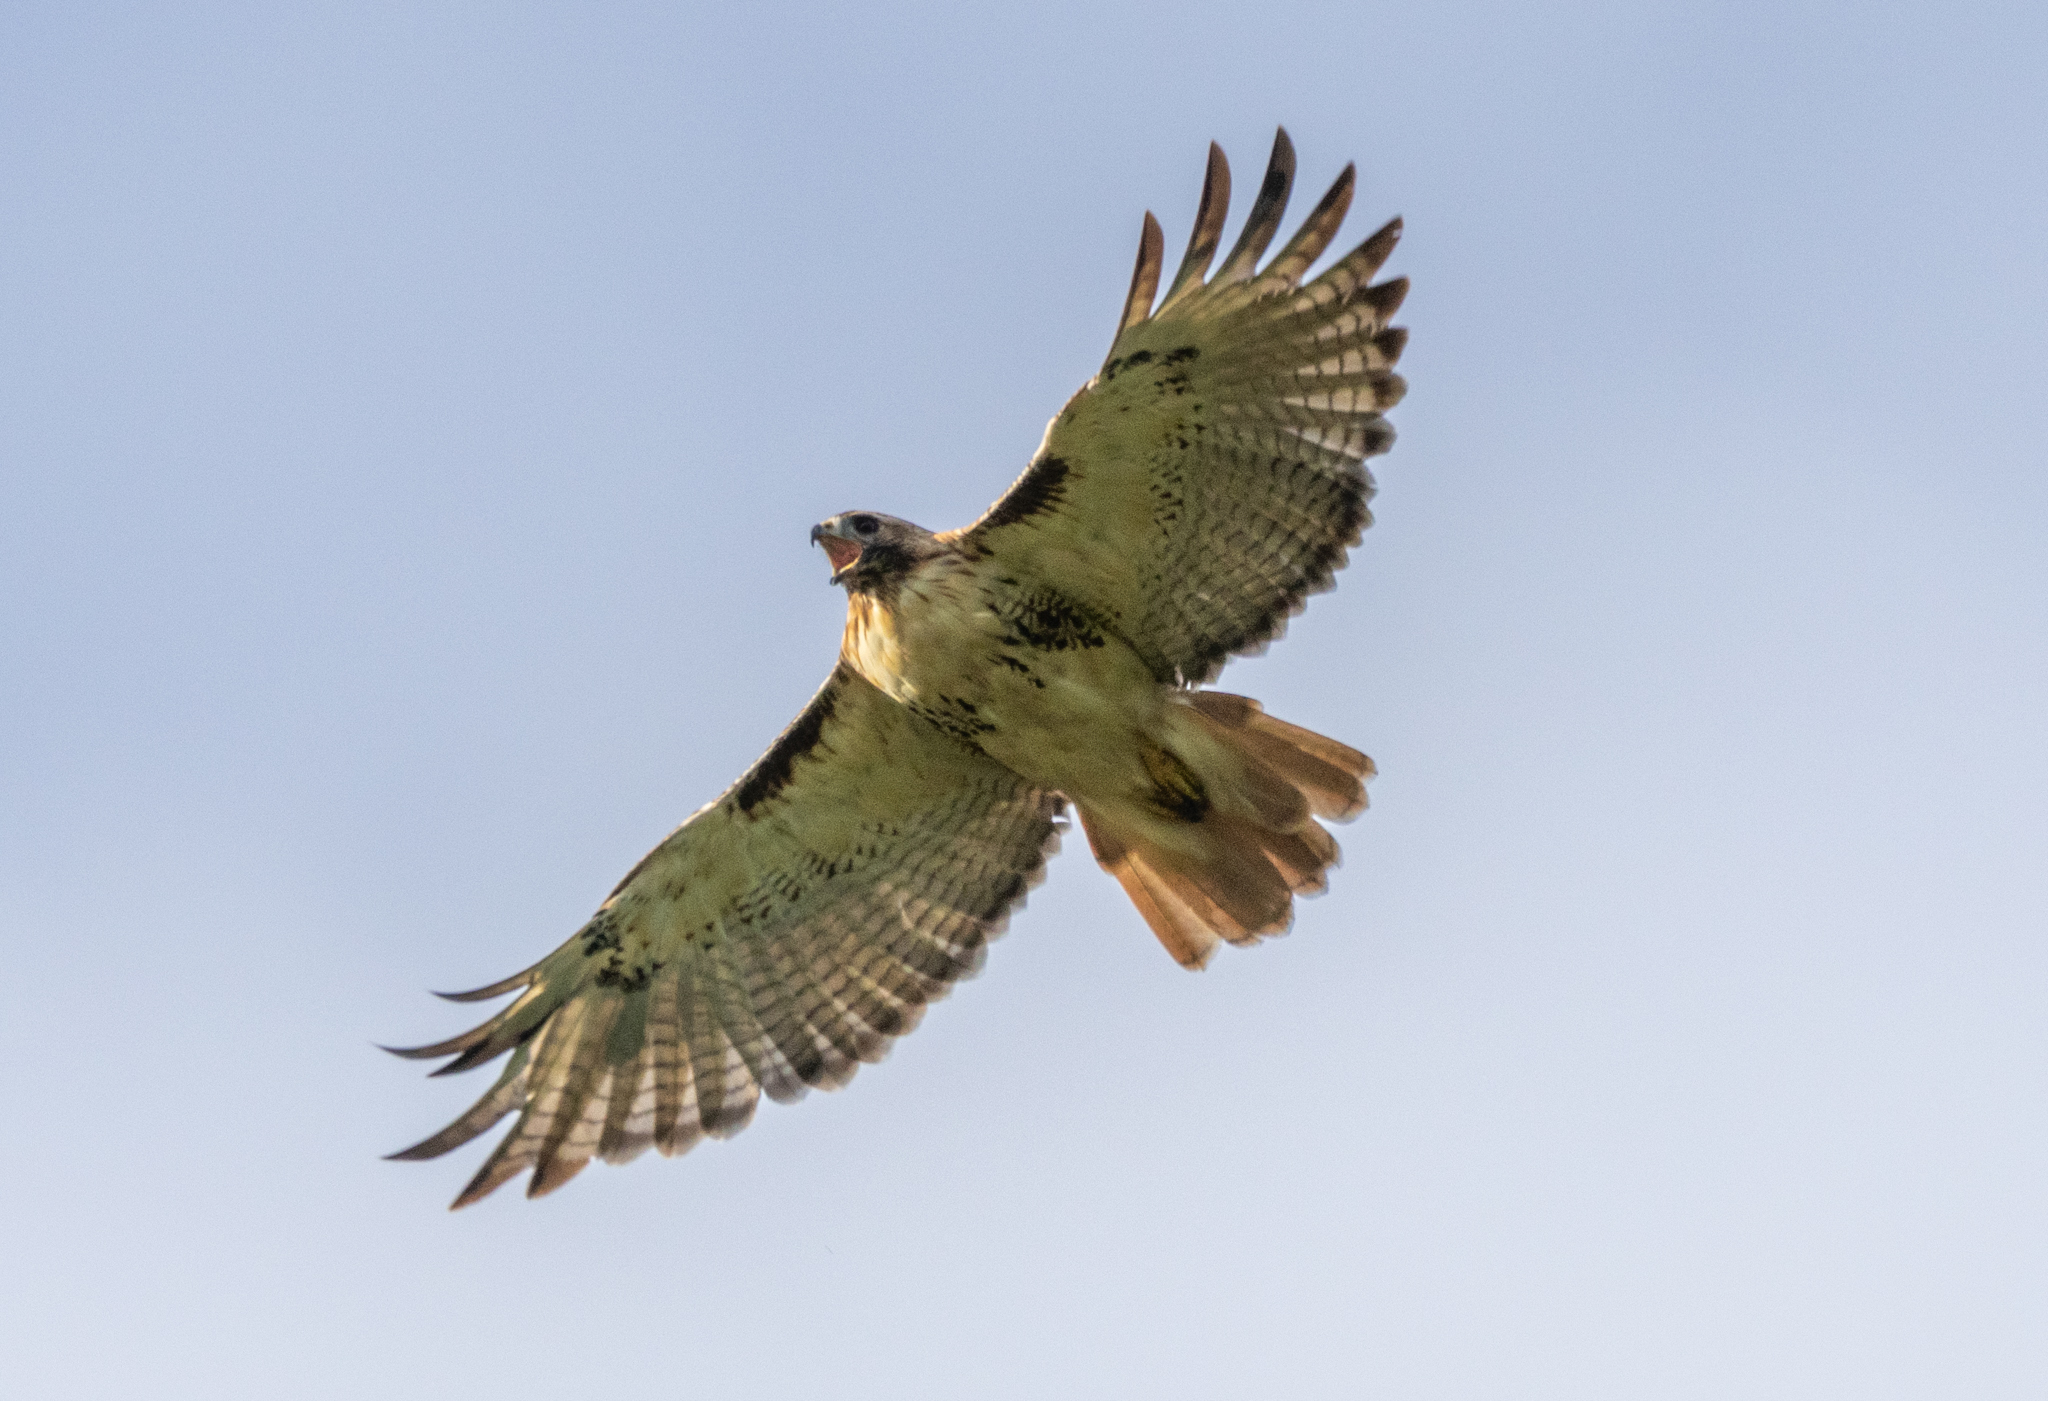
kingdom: Animalia
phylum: Chordata
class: Aves
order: Accipitriformes
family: Accipitridae
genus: Buteo
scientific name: Buteo jamaicensis
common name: Red-tailed hawk
